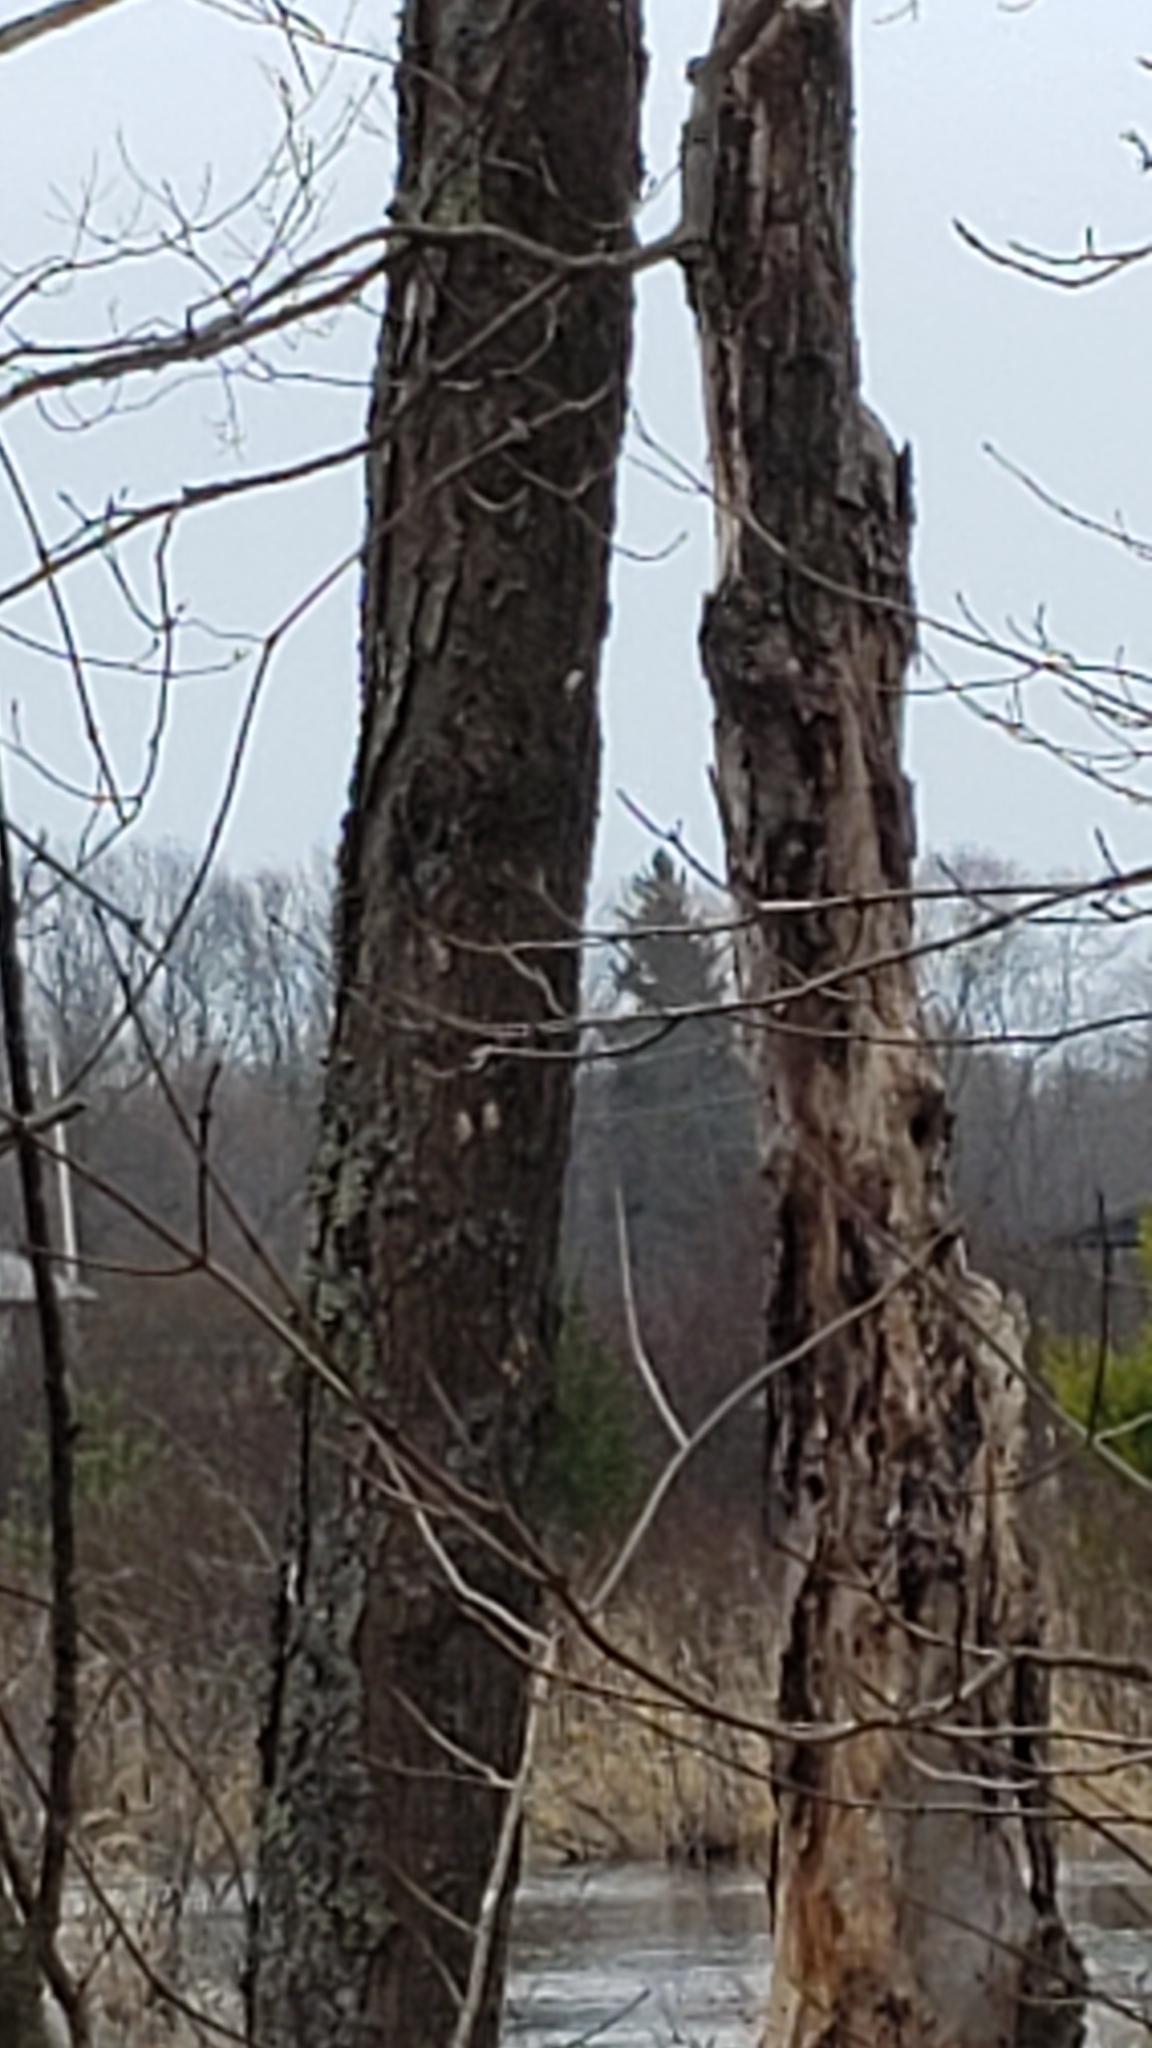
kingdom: Animalia
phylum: Arthropoda
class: Insecta
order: Lepidoptera
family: Erebidae
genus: Lymantria
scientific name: Lymantria dispar
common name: Gypsy moth
